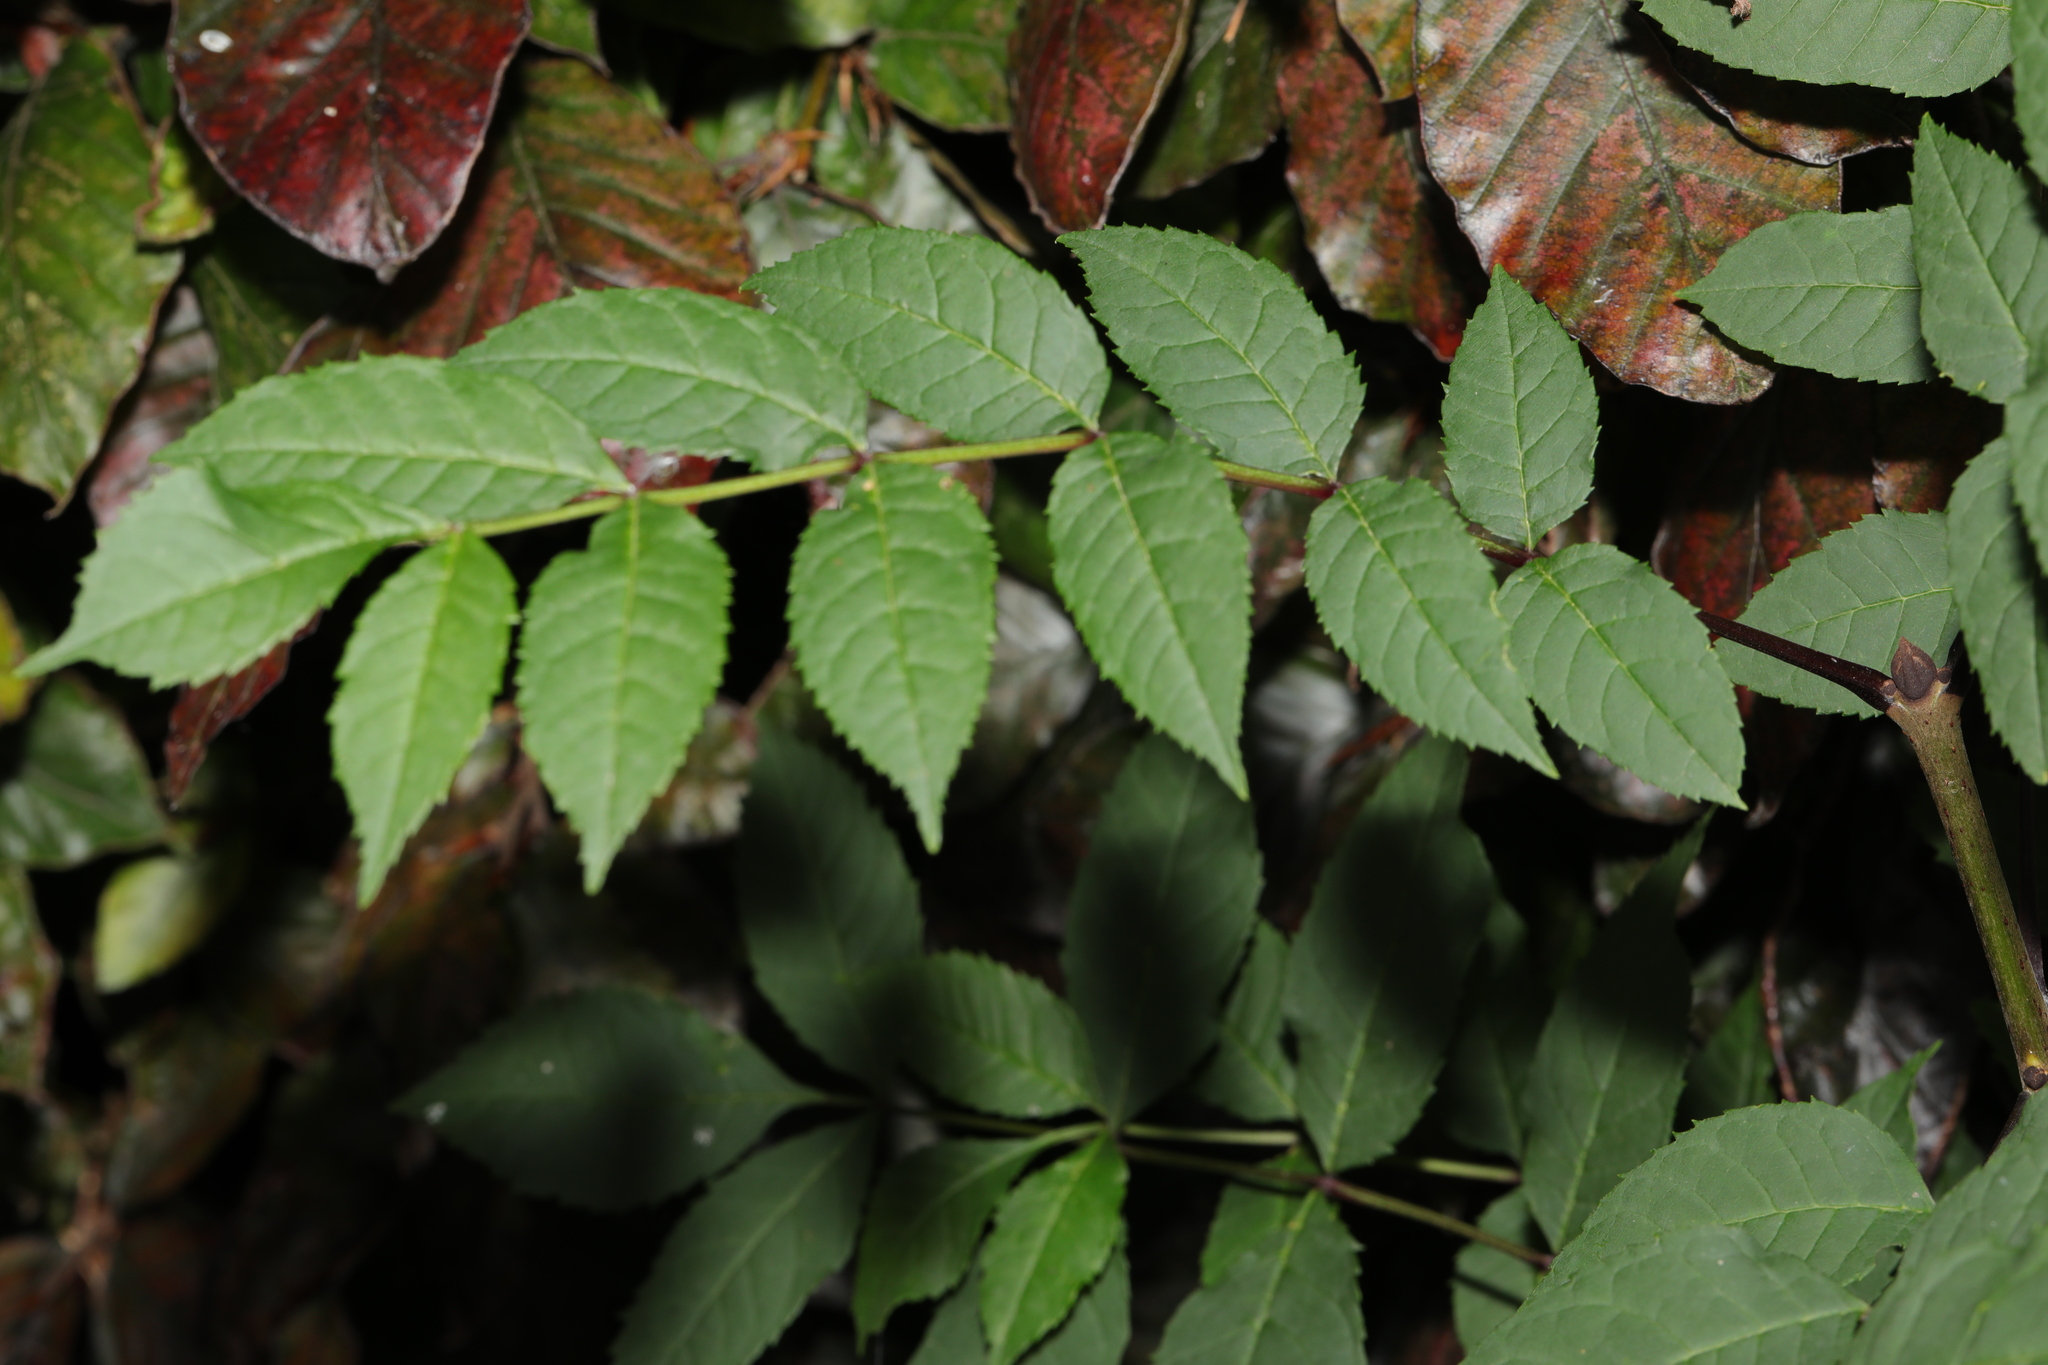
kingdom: Plantae
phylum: Tracheophyta
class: Magnoliopsida
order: Lamiales
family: Oleaceae
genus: Fraxinus
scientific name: Fraxinus excelsior
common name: European ash
